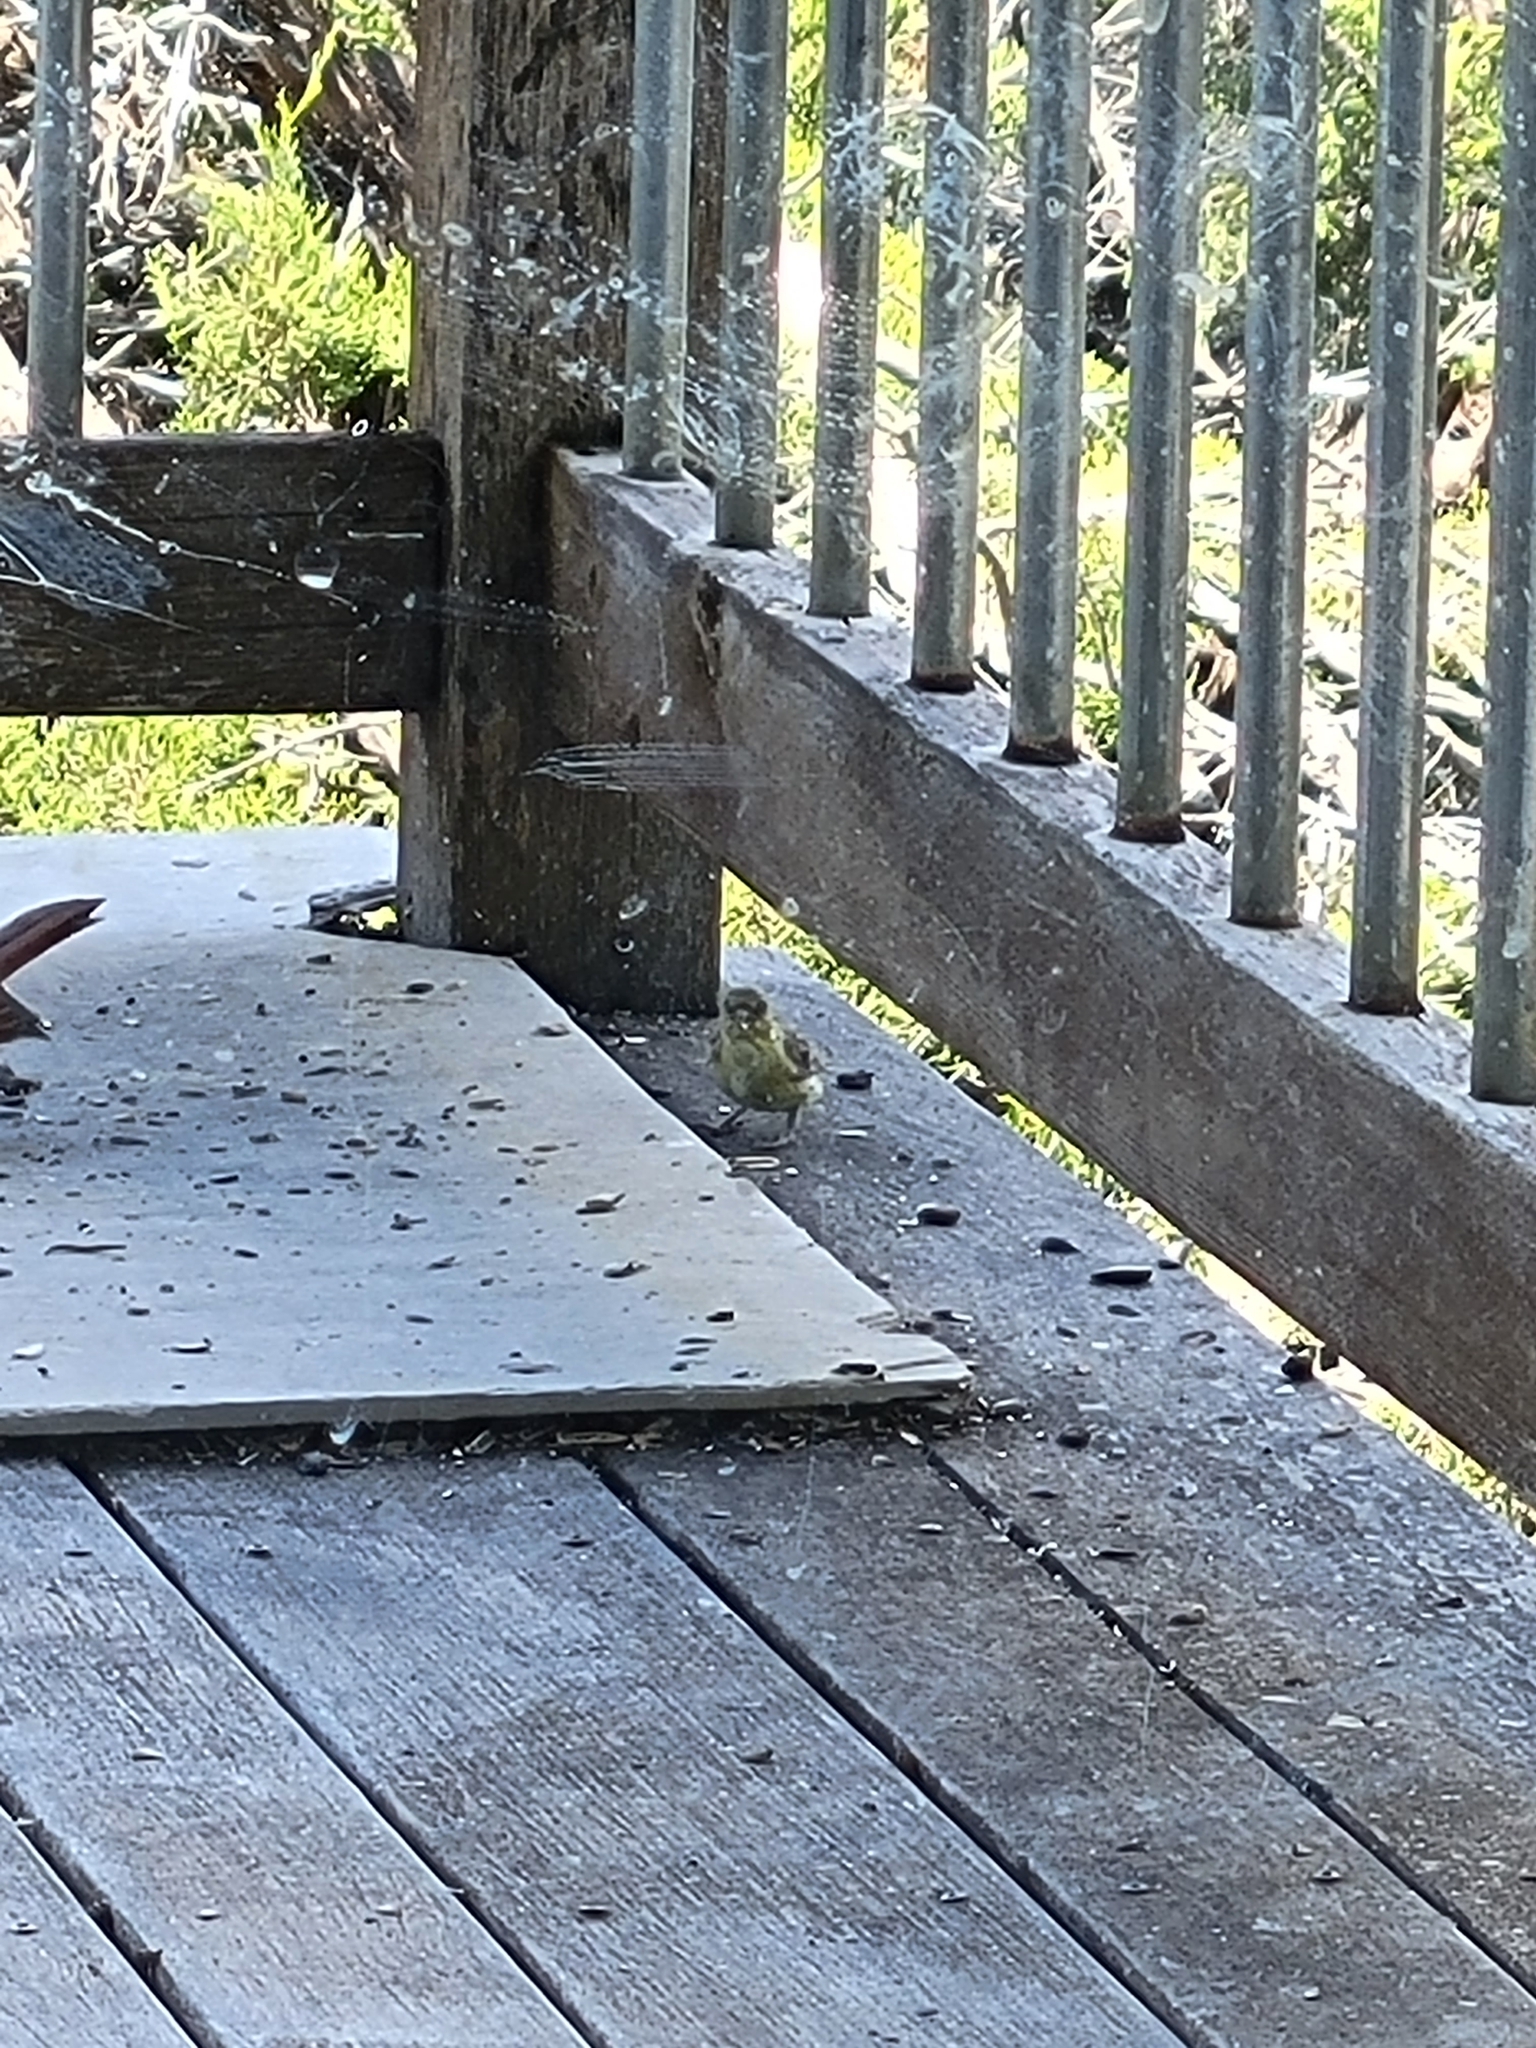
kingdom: Animalia
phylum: Chordata
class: Aves
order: Passeriformes
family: Fringillidae
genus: Spinus
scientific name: Spinus psaltria
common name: Lesser goldfinch
